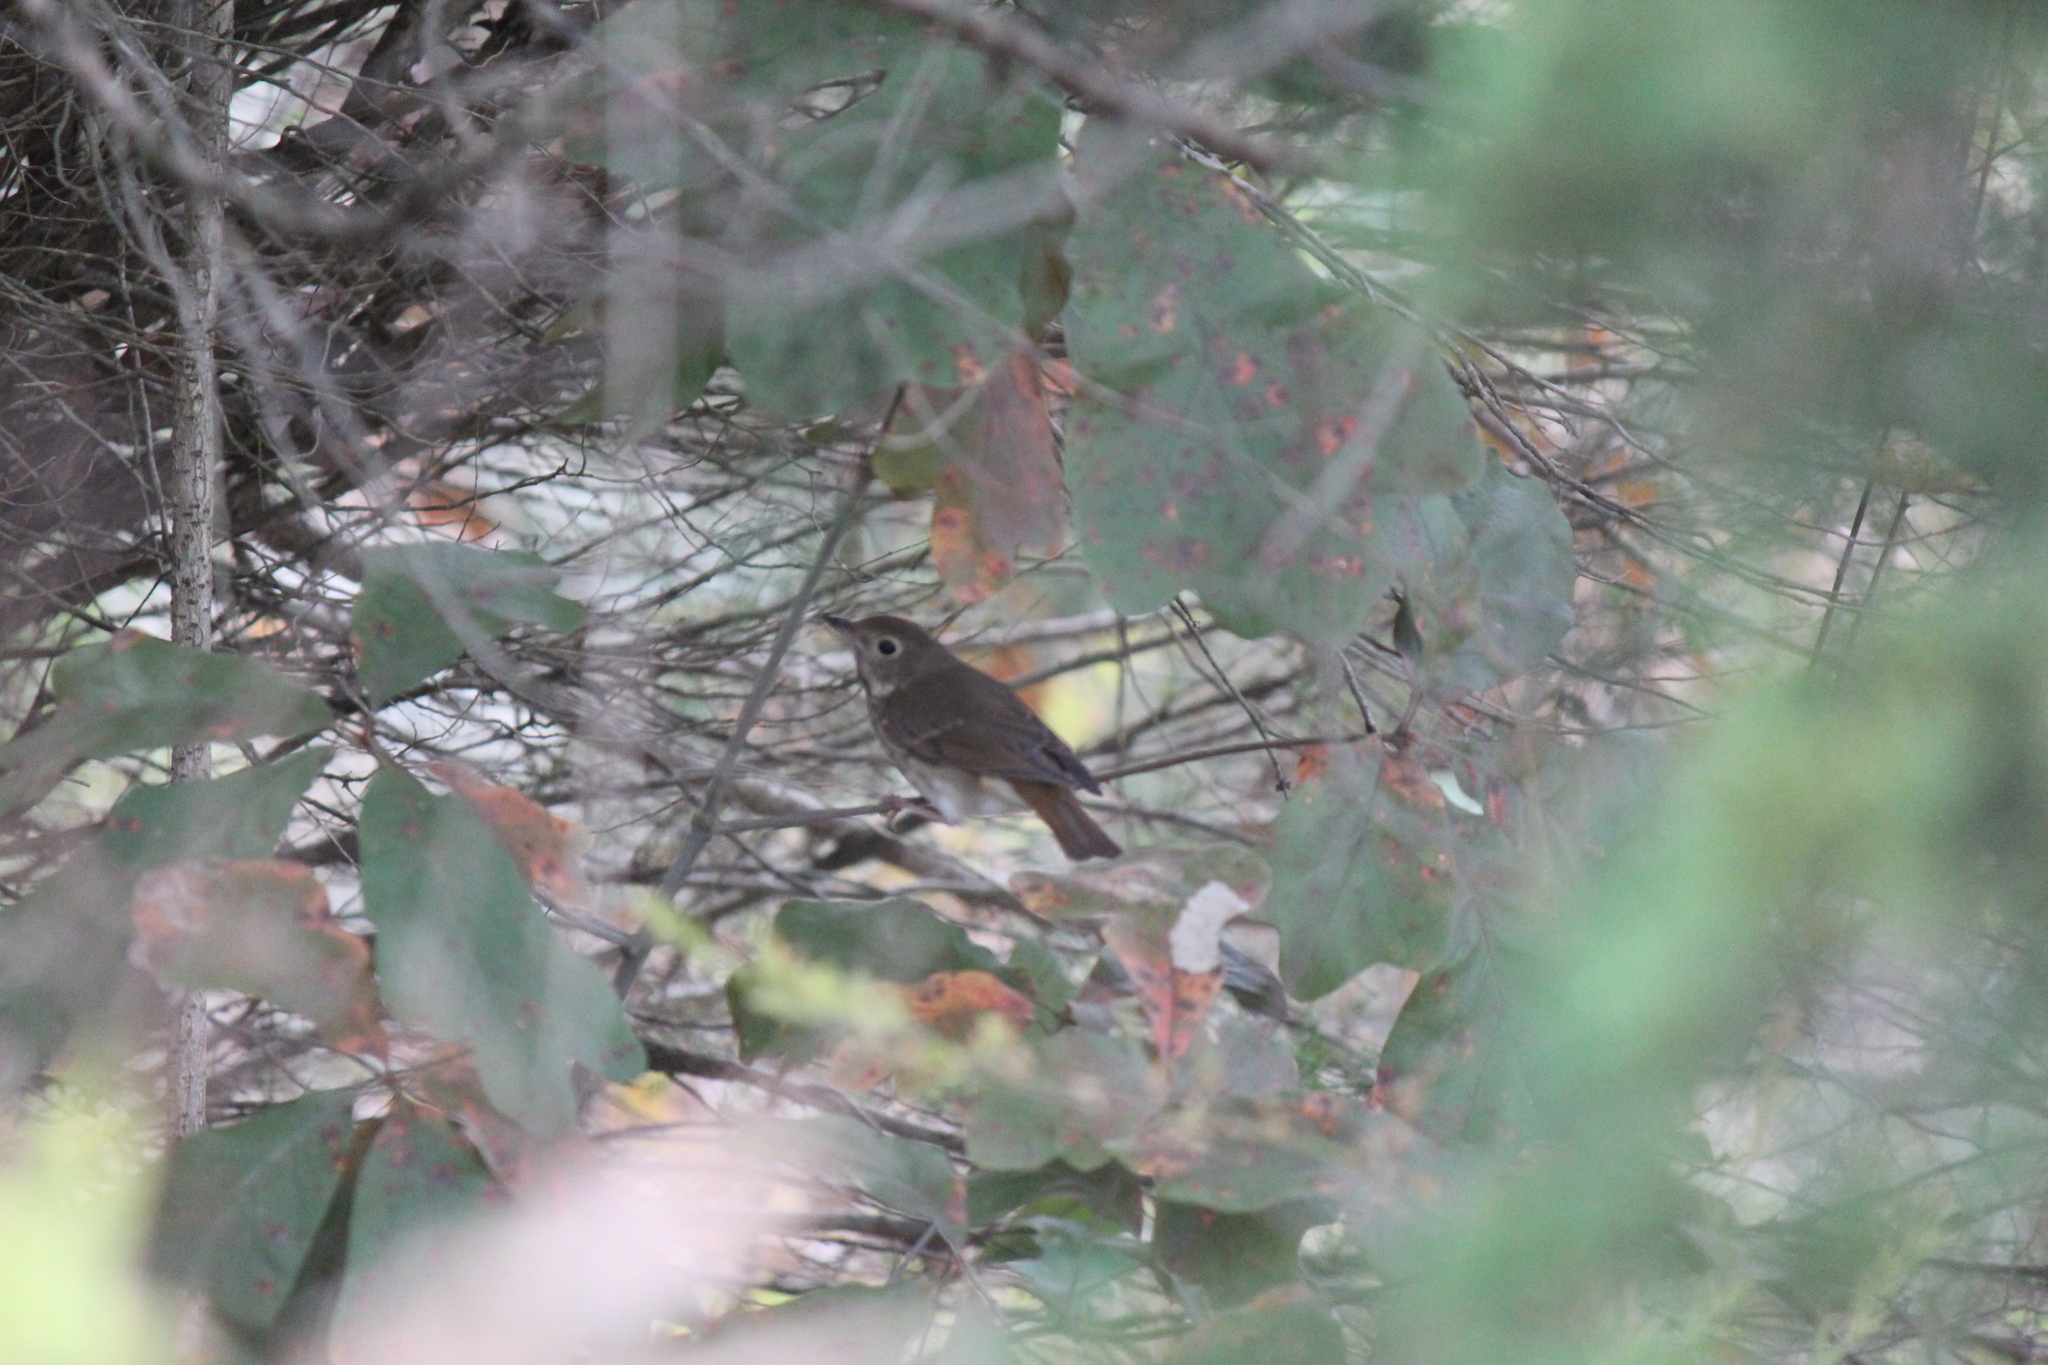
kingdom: Animalia
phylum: Chordata
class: Aves
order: Passeriformes
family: Turdidae
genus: Catharus
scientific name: Catharus guttatus
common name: Hermit thrush
